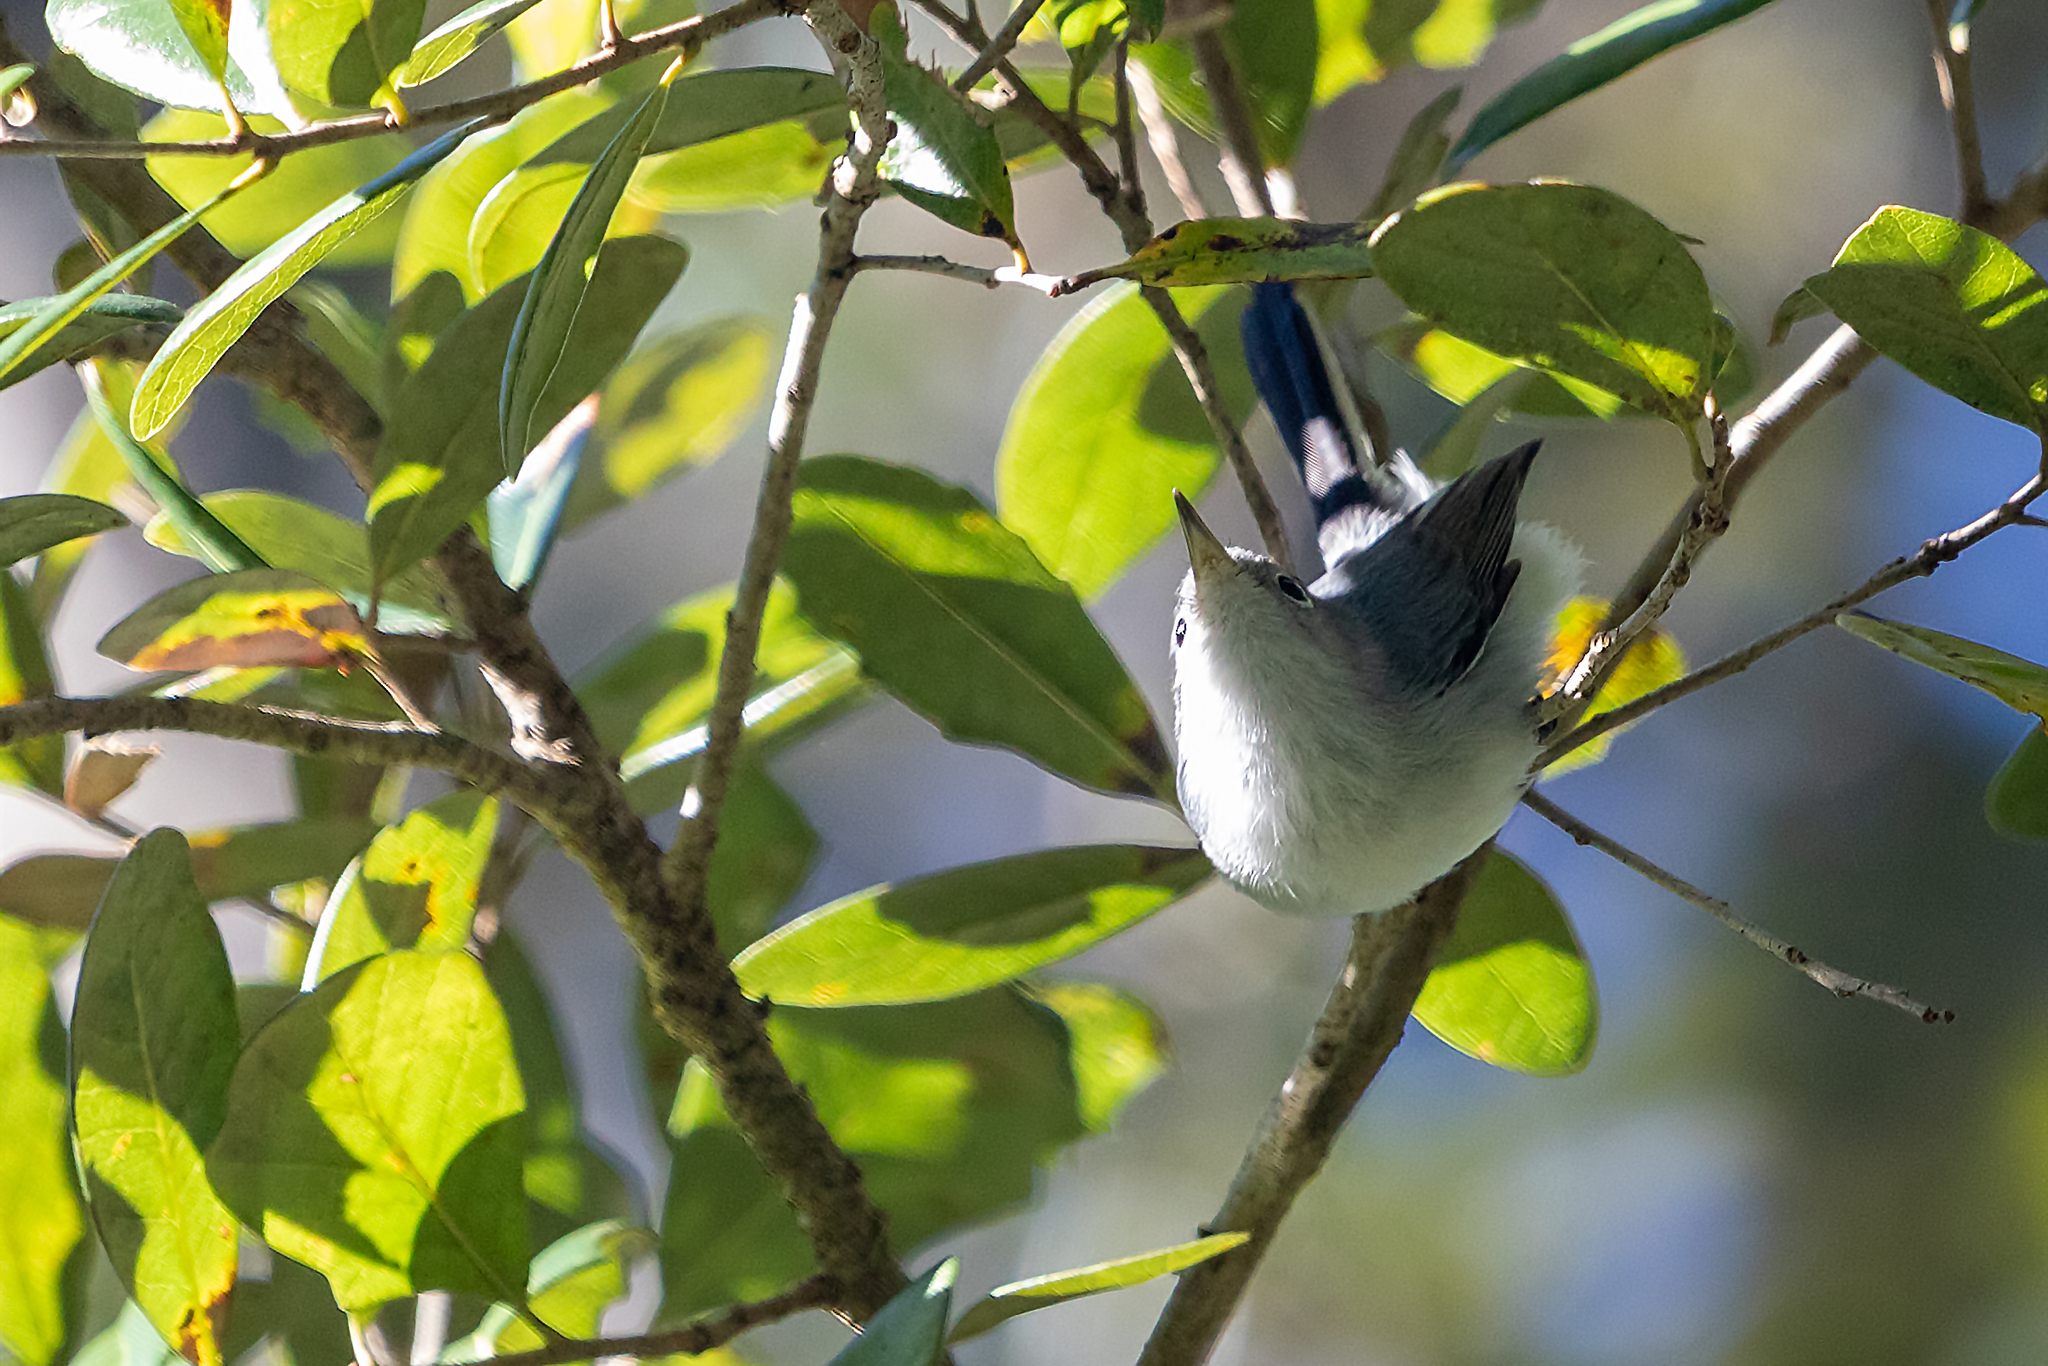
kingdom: Animalia
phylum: Chordata
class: Aves
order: Passeriformes
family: Polioptilidae
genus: Polioptila
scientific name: Polioptila caerulea
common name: Blue-gray gnatcatcher
